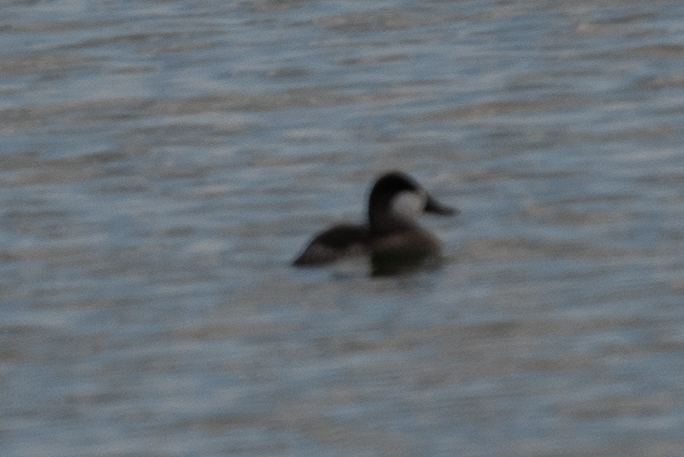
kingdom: Animalia
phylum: Chordata
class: Aves
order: Anseriformes
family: Anatidae
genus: Oxyura
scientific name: Oxyura jamaicensis
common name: Ruddy duck
